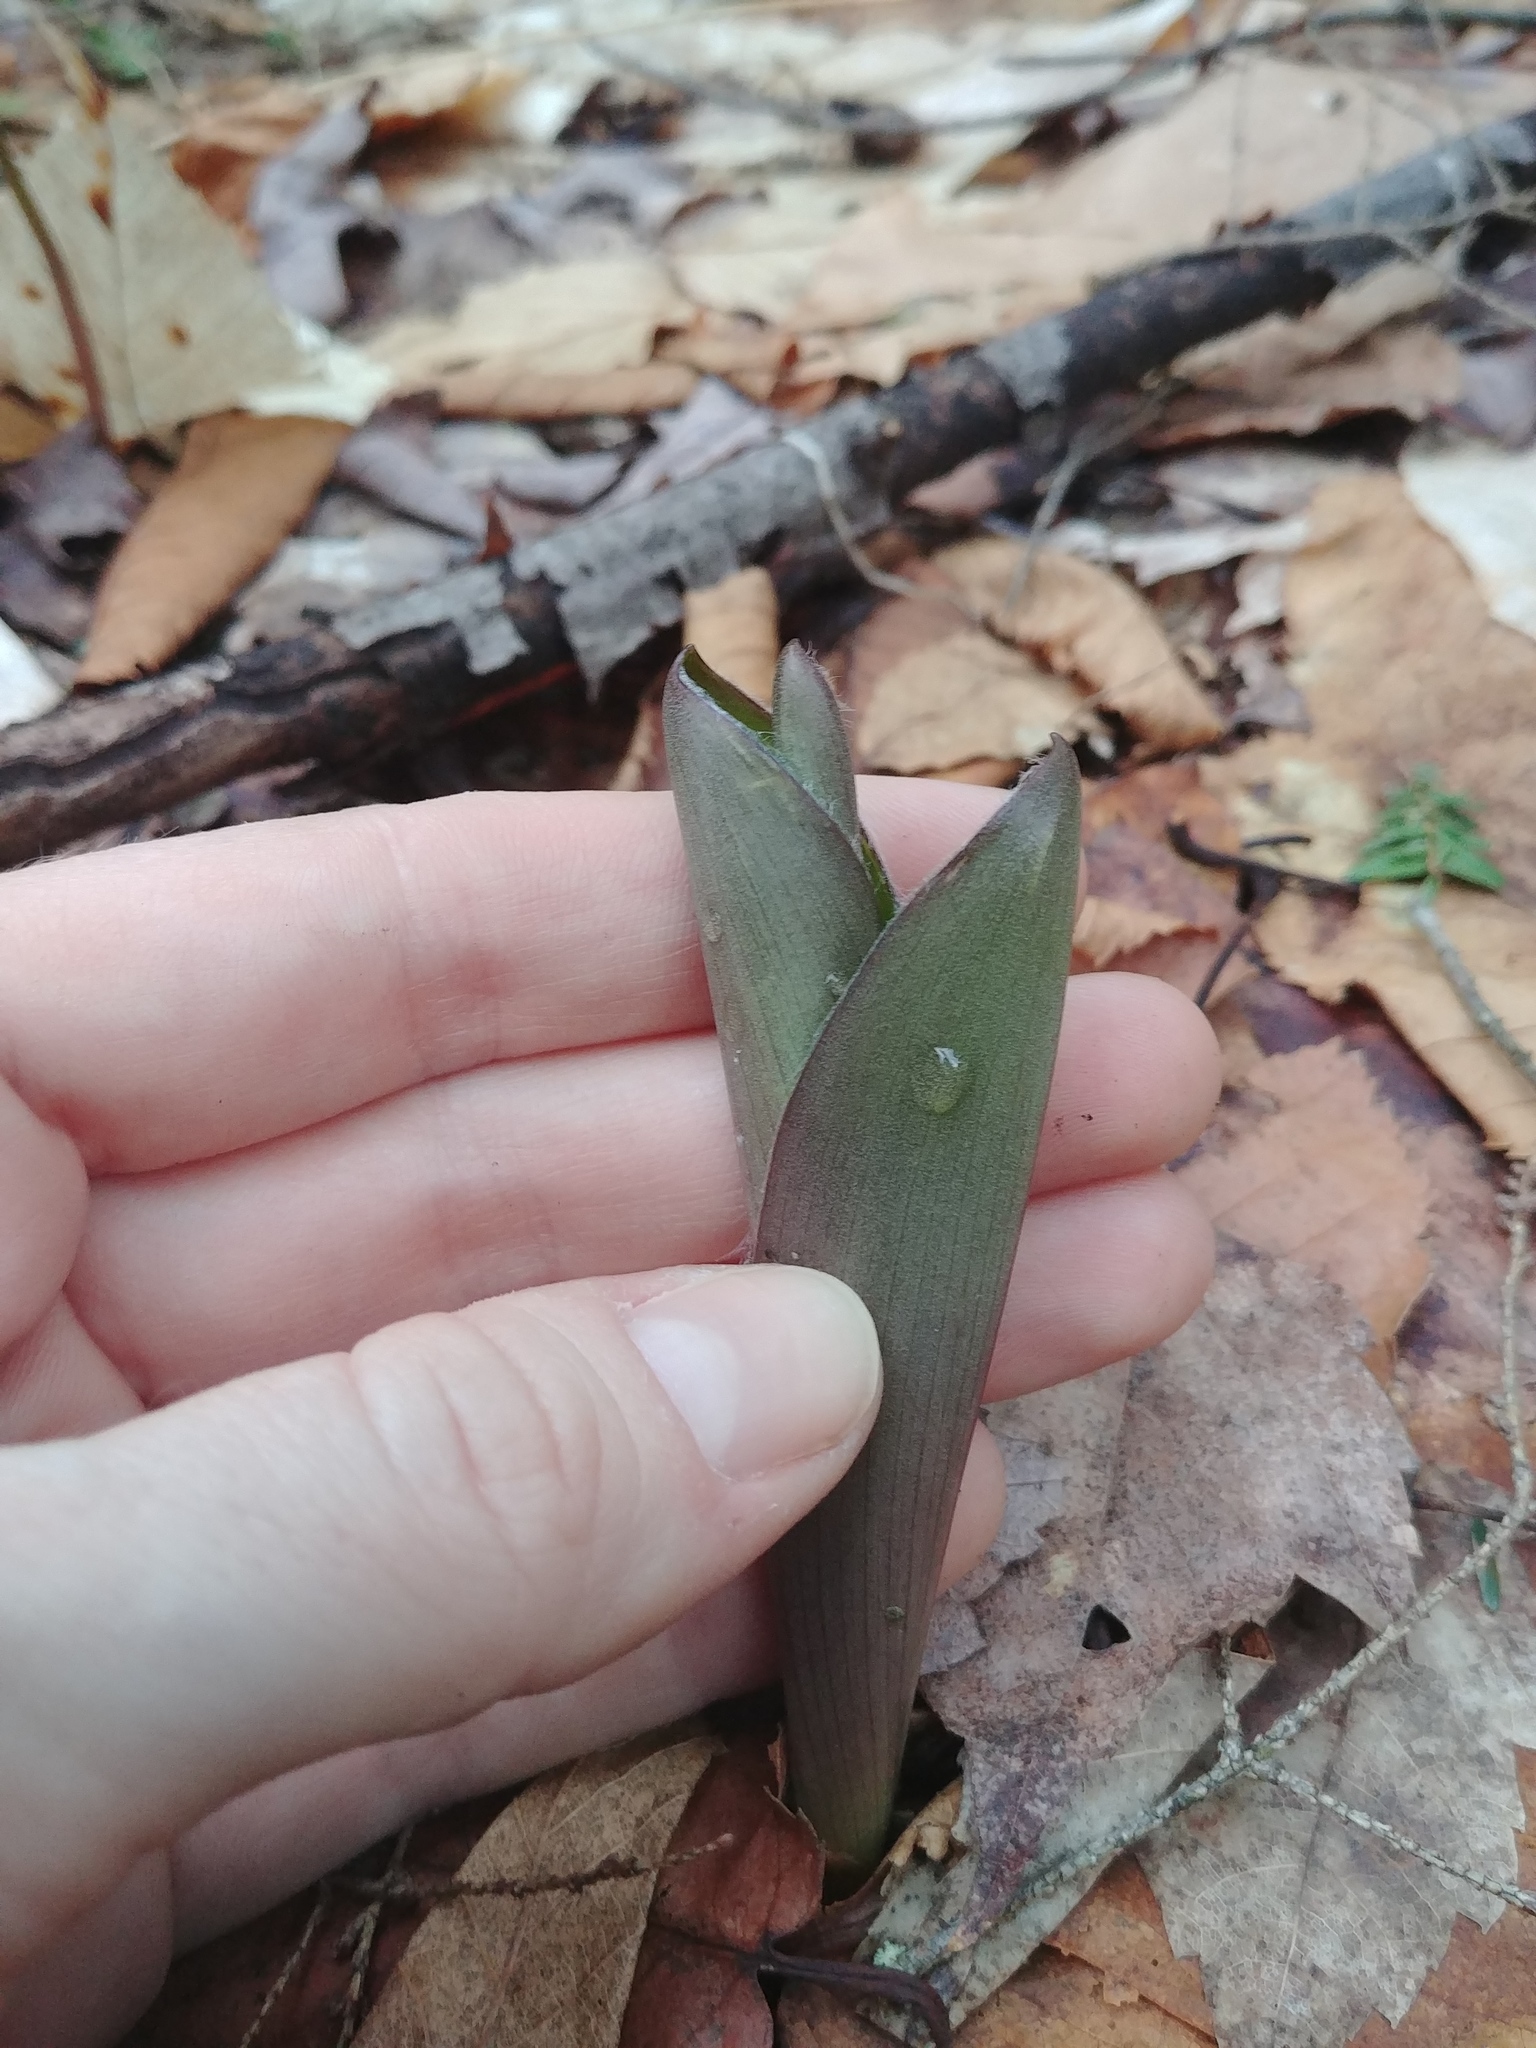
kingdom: Plantae
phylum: Tracheophyta
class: Liliopsida
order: Liliales
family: Liliaceae
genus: Clintonia
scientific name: Clintonia borealis
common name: Yellow clintonia
